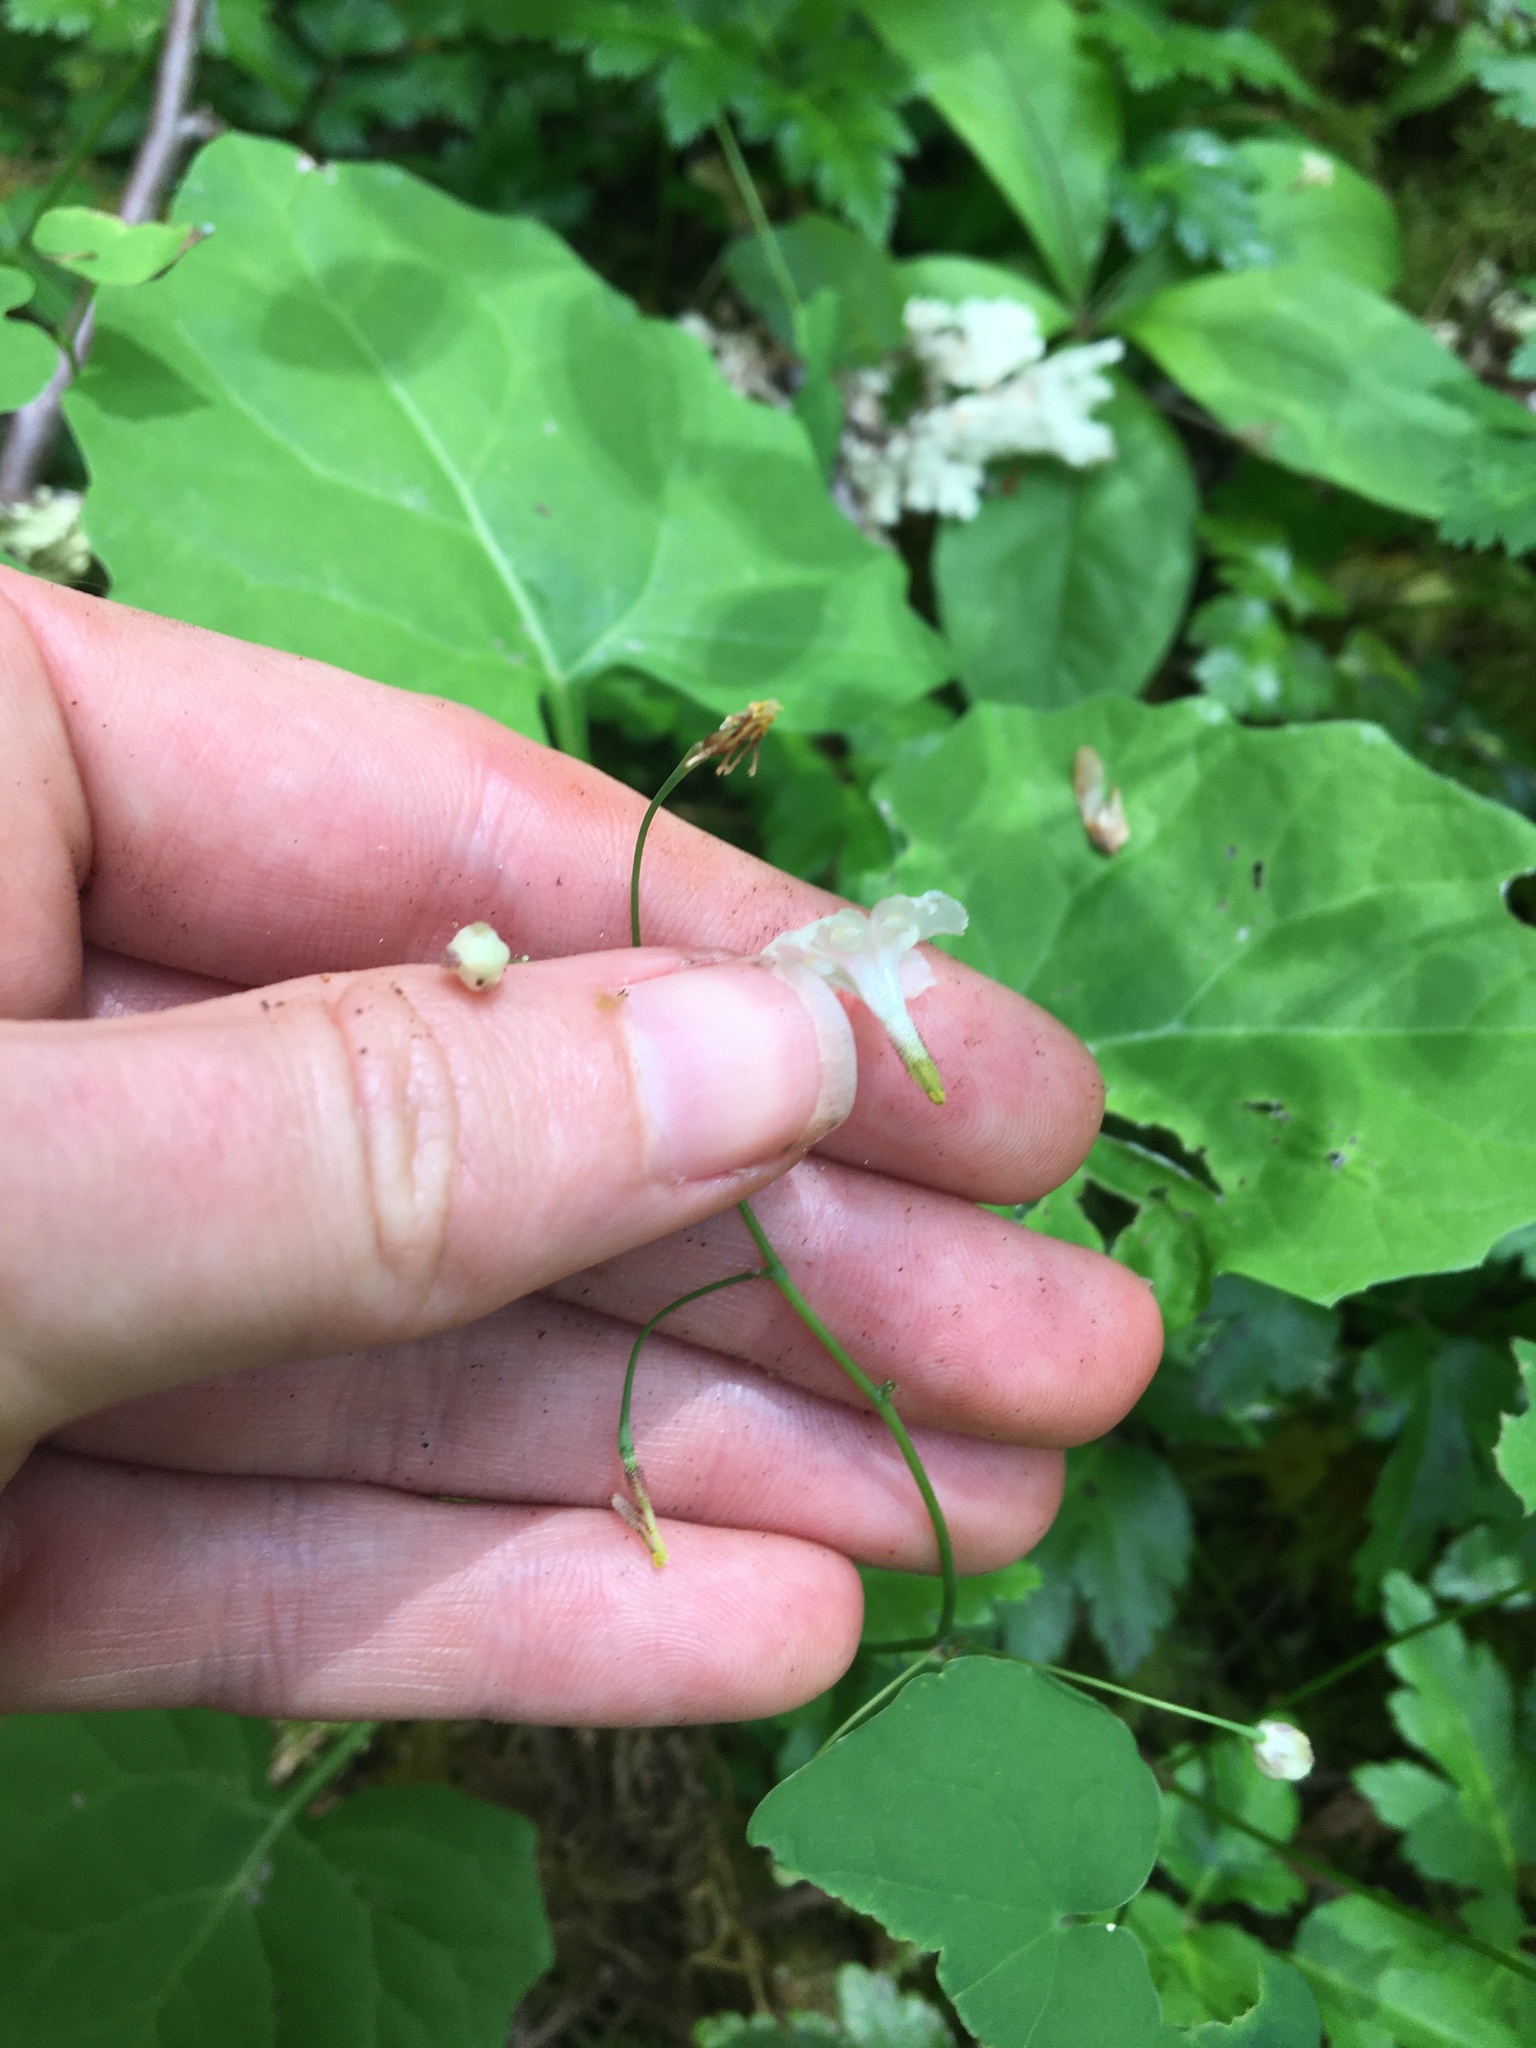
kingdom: Plantae
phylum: Tracheophyta
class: Magnoliopsida
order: Ranunculales
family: Berberidaceae
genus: Vancouveria
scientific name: Vancouveria hexandra
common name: Northern inside-out-flower
